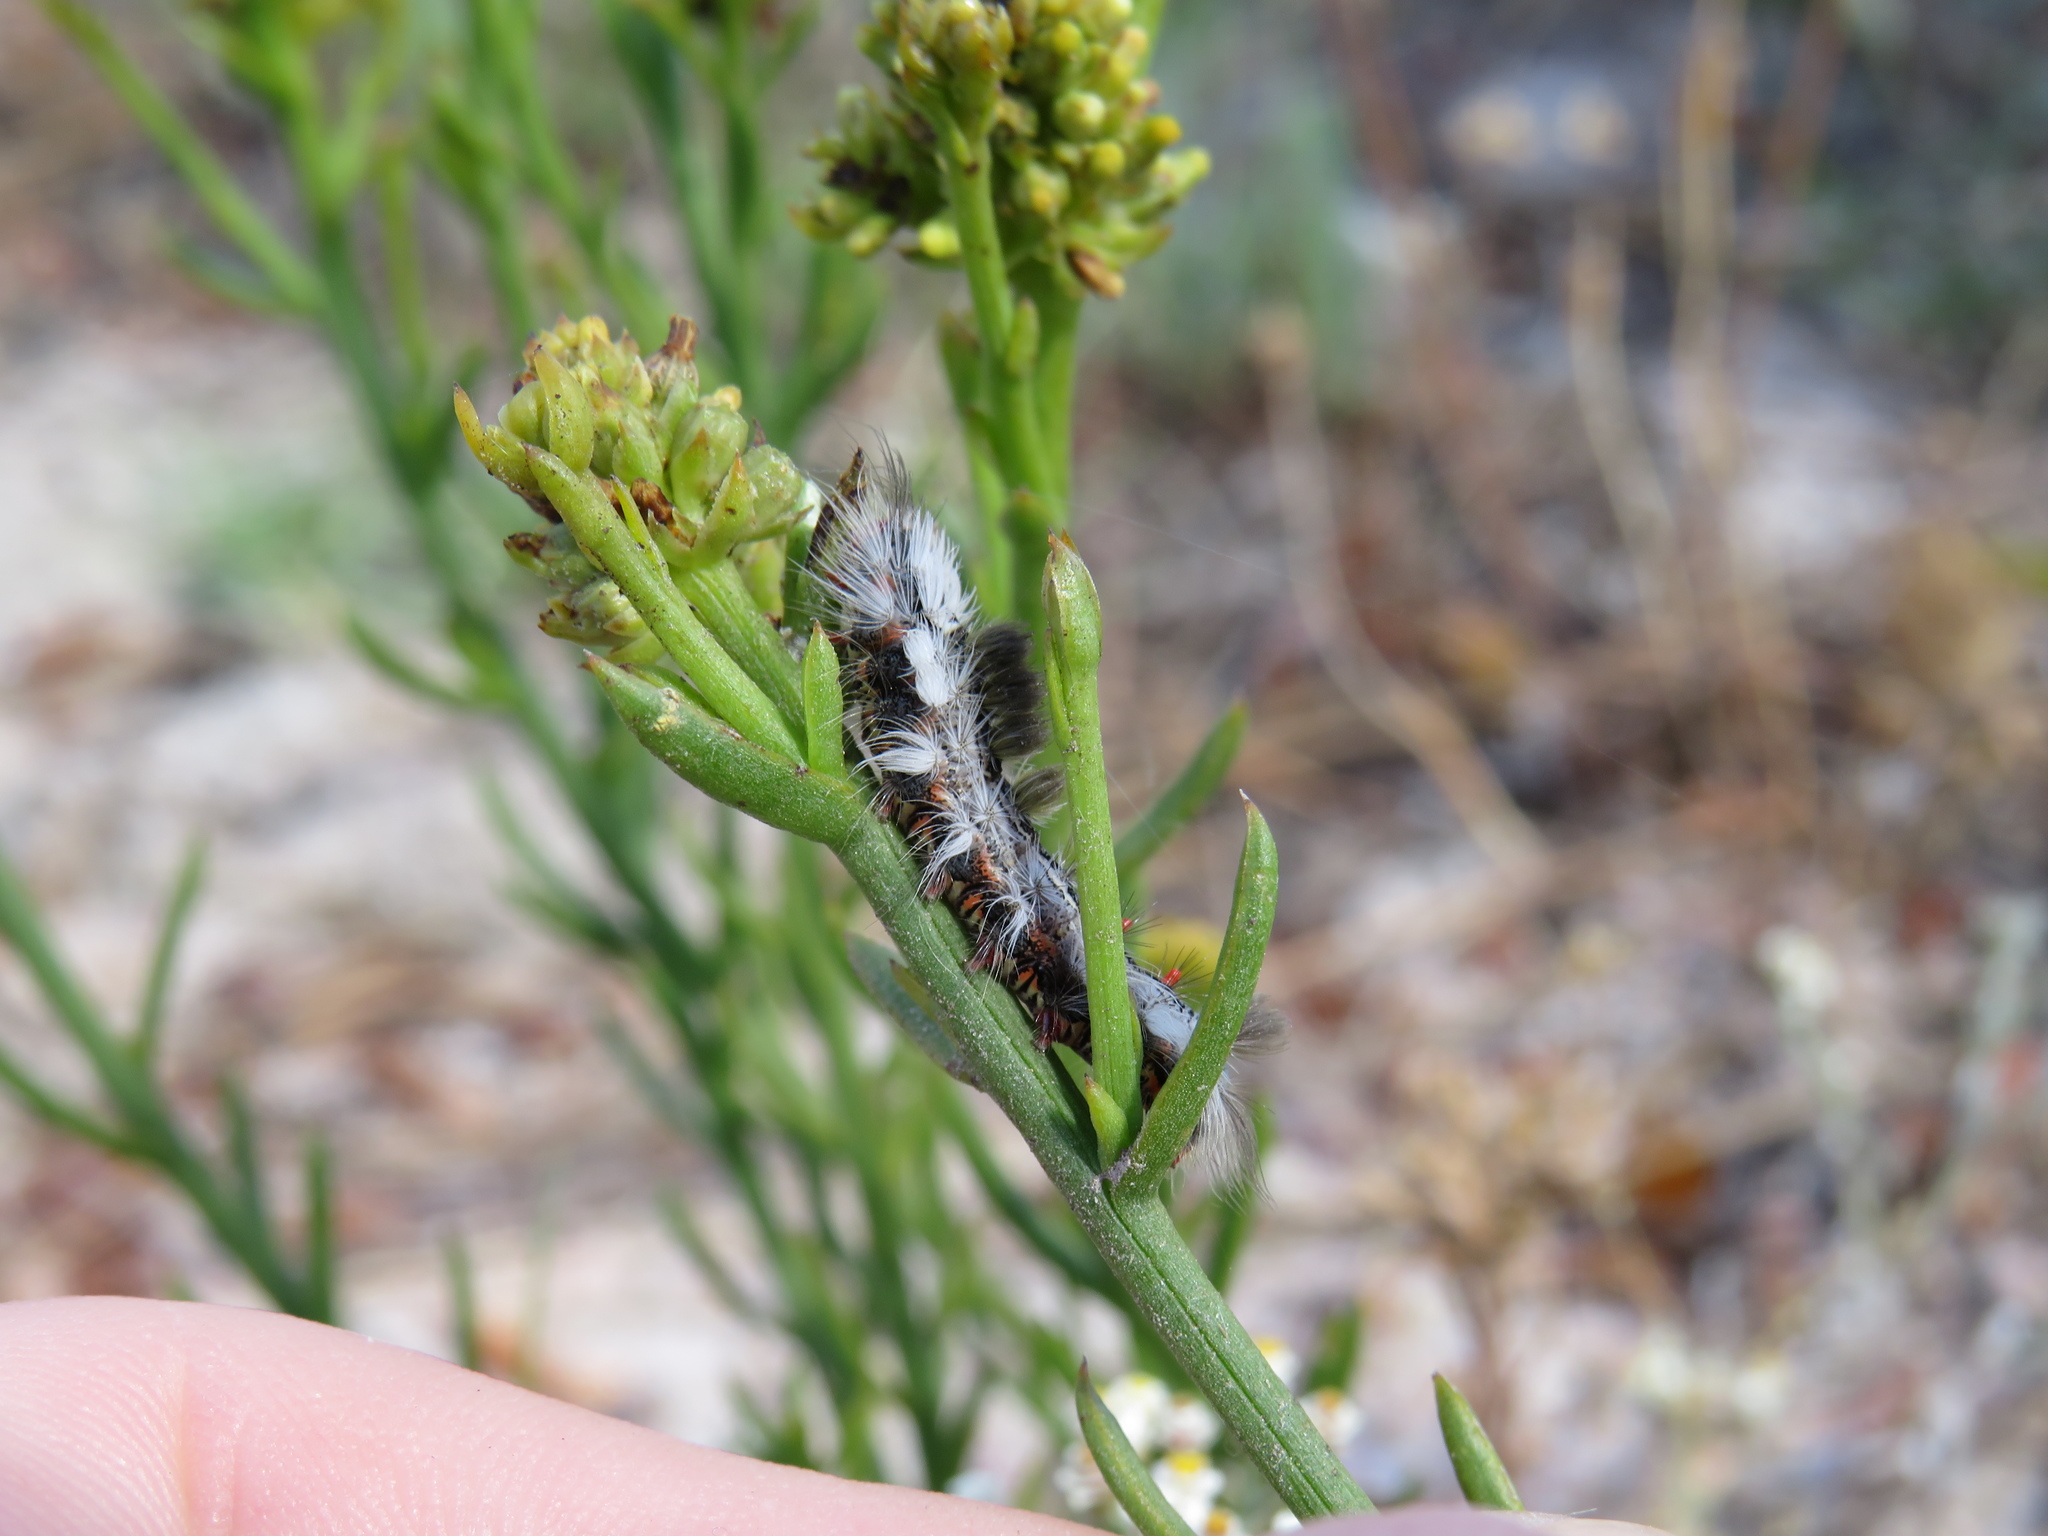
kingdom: Animalia
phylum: Arthropoda
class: Insecta
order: Lepidoptera
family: Erebidae
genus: Bracharoa
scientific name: Bracharoa dregei
